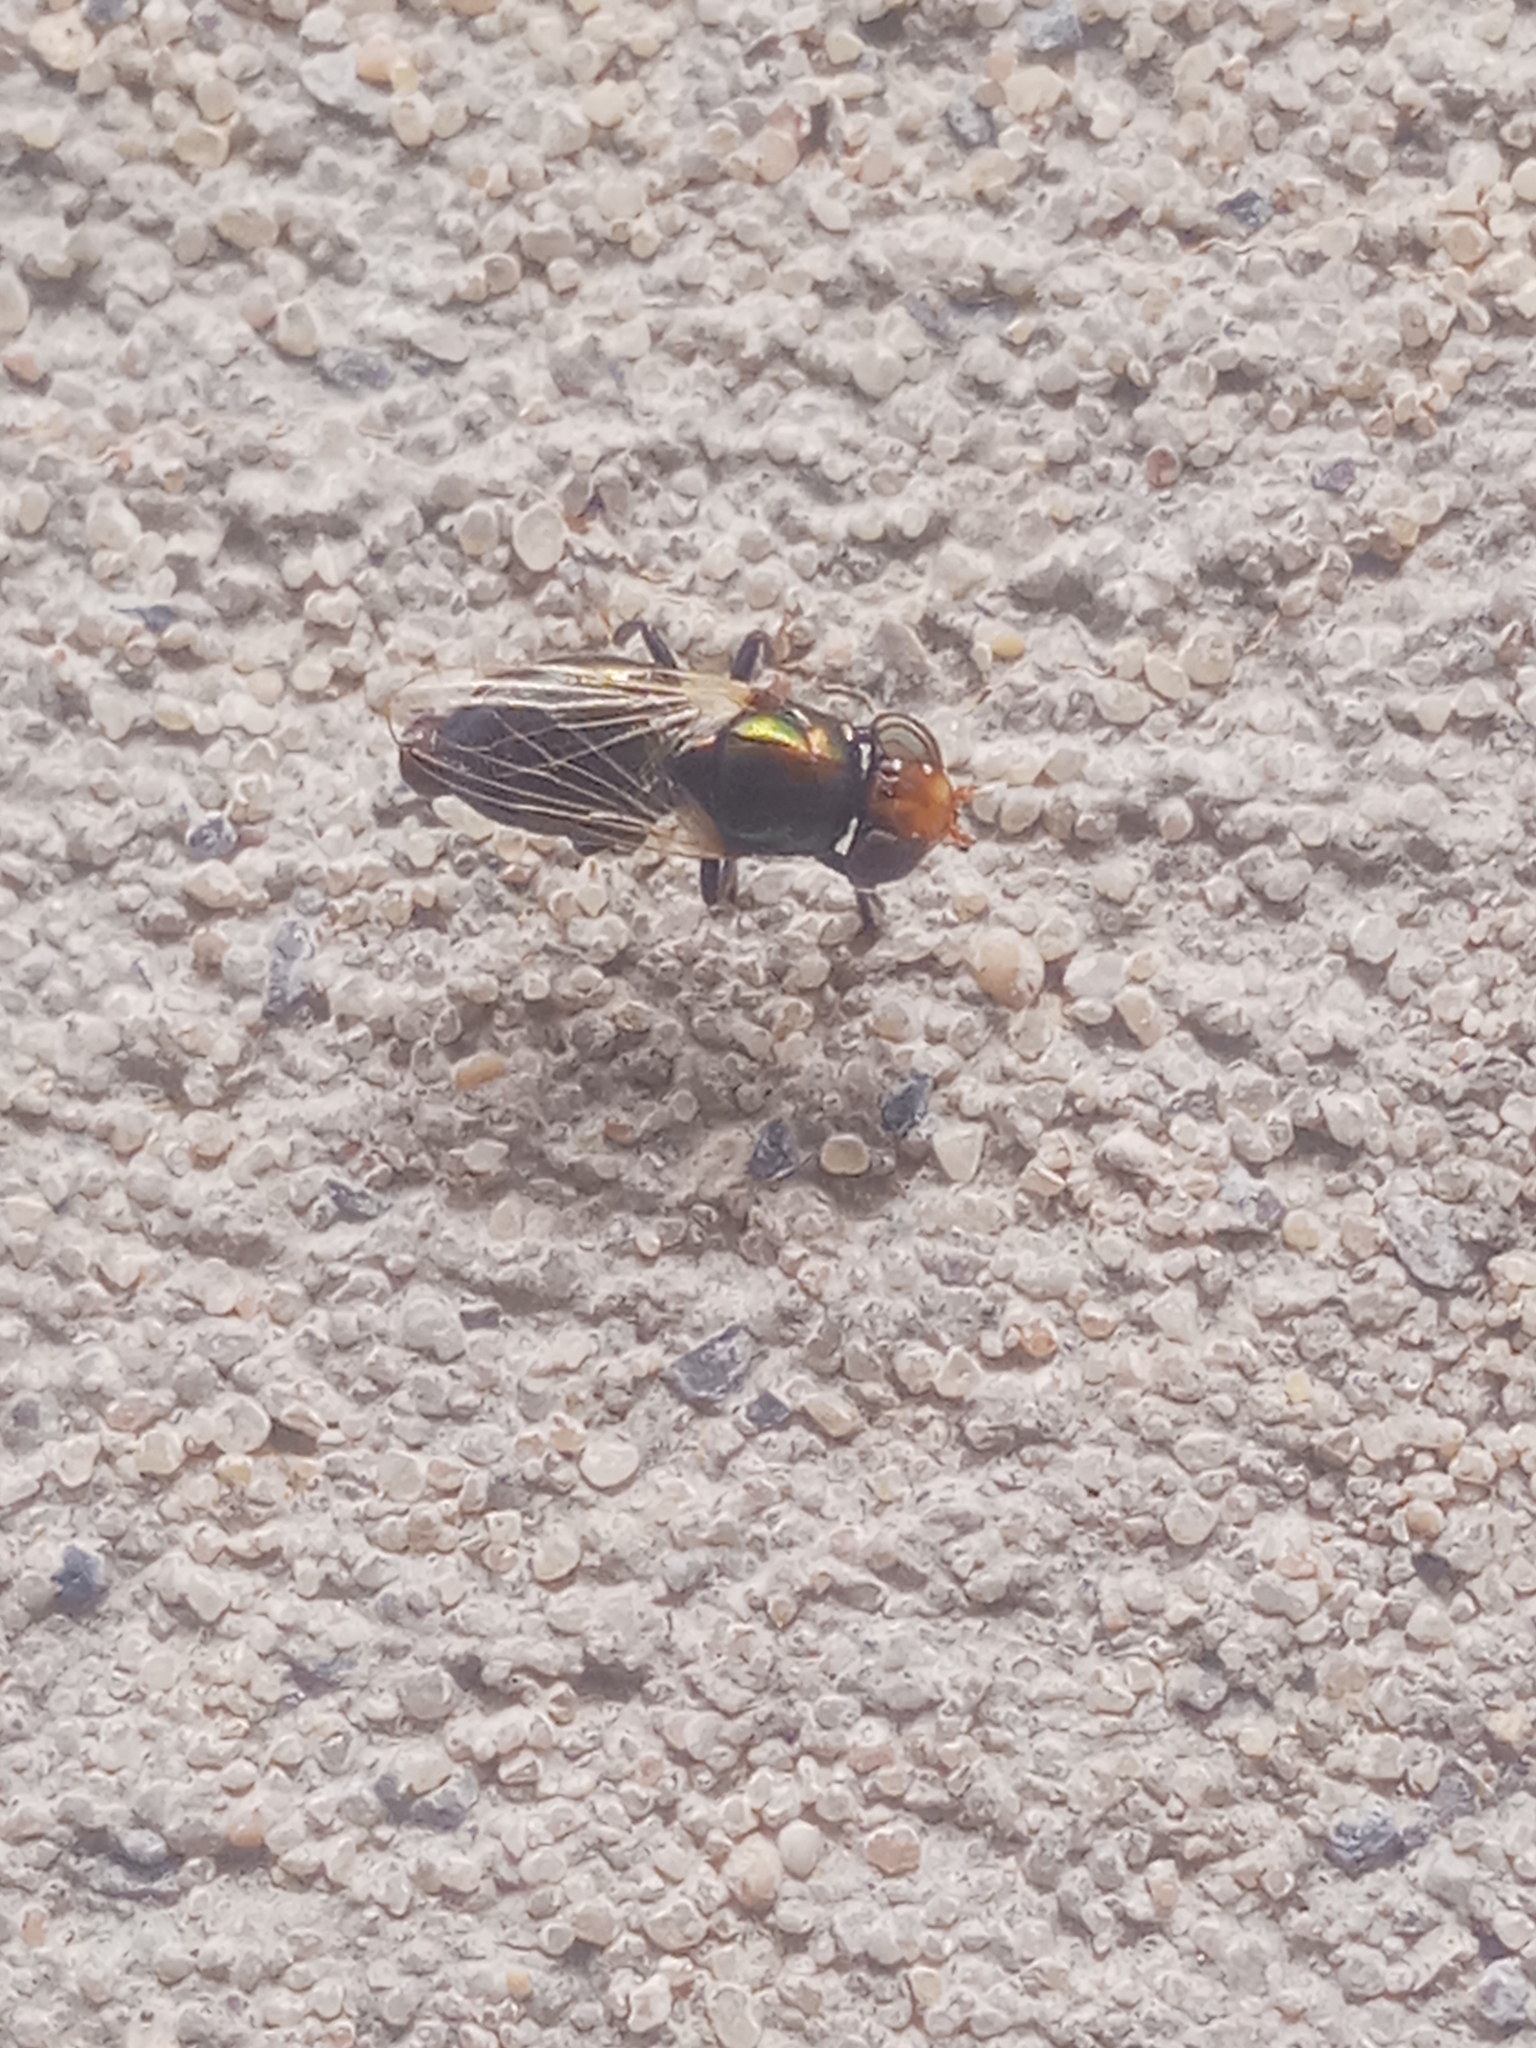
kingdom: Animalia
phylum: Arthropoda
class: Insecta
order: Diptera
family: Ulidiidae
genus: Physiphora
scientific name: Physiphora alceae
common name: Picture-winged fly
